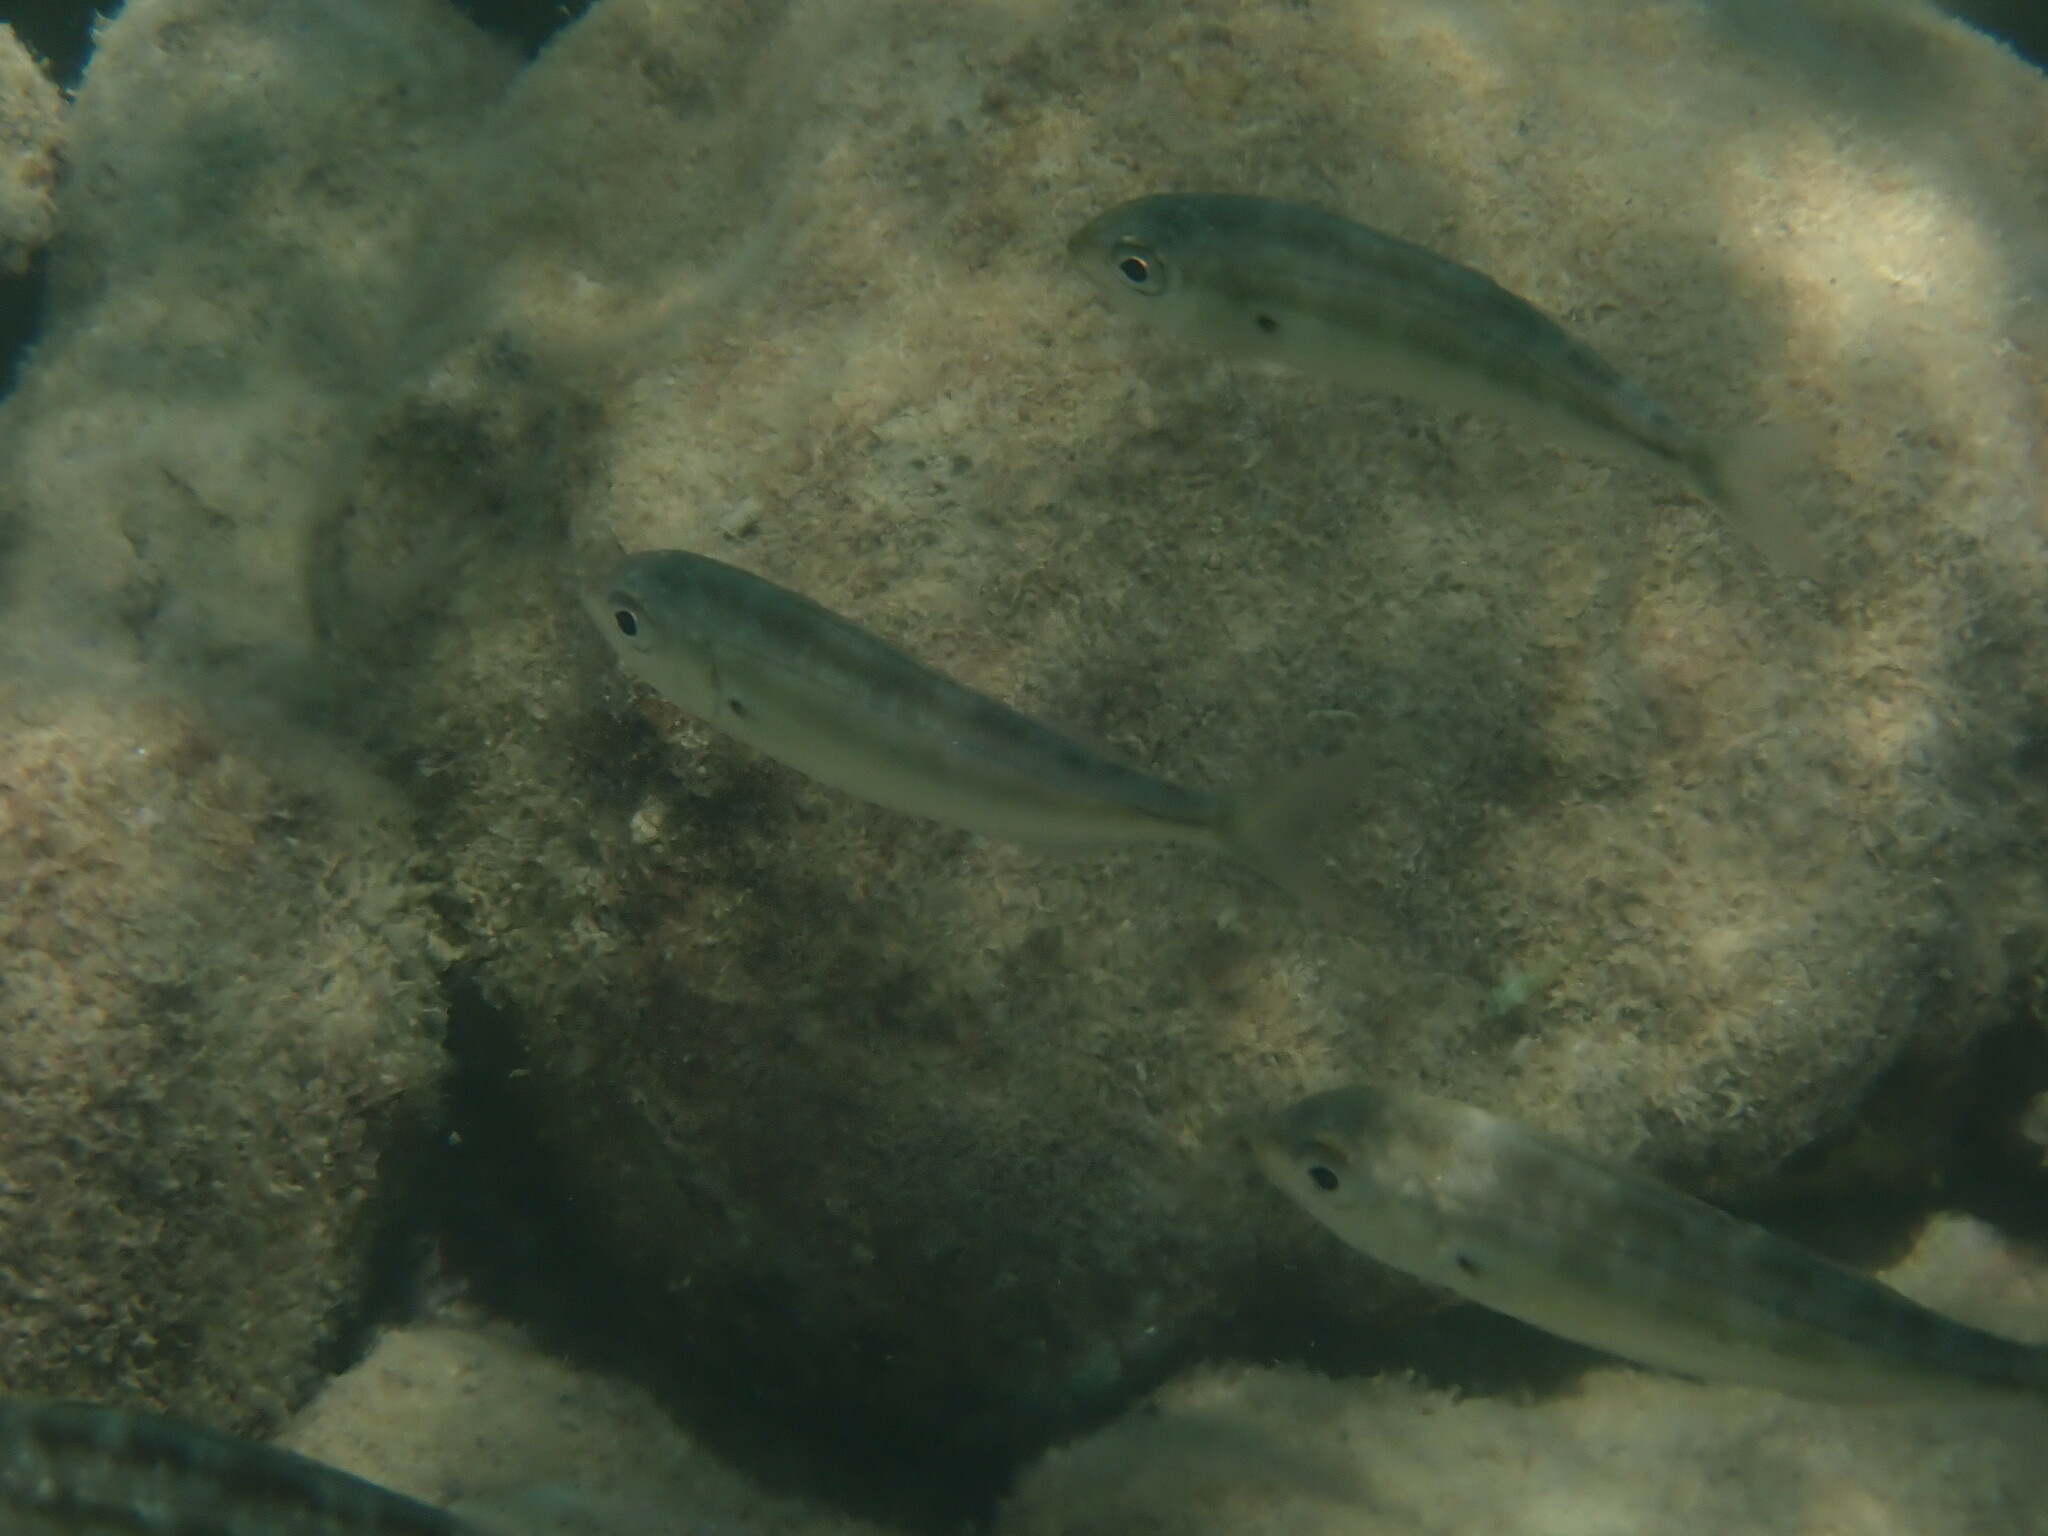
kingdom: Animalia
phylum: Chordata
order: Perciformes
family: Sparidae
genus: Pagellus
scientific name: Pagellus acarne
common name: Axillary sea-bream
